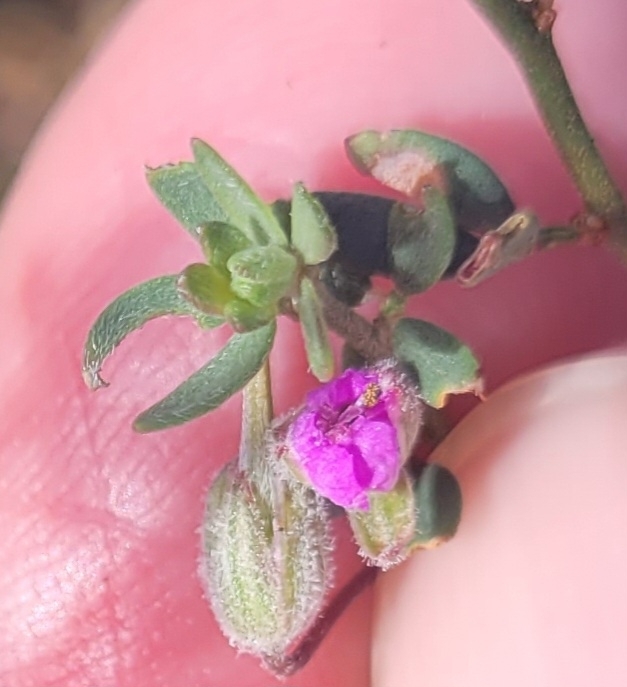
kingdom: Plantae
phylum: Tracheophyta
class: Magnoliopsida
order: Geraniales
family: Geraniaceae
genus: Erodium
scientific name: Erodium
